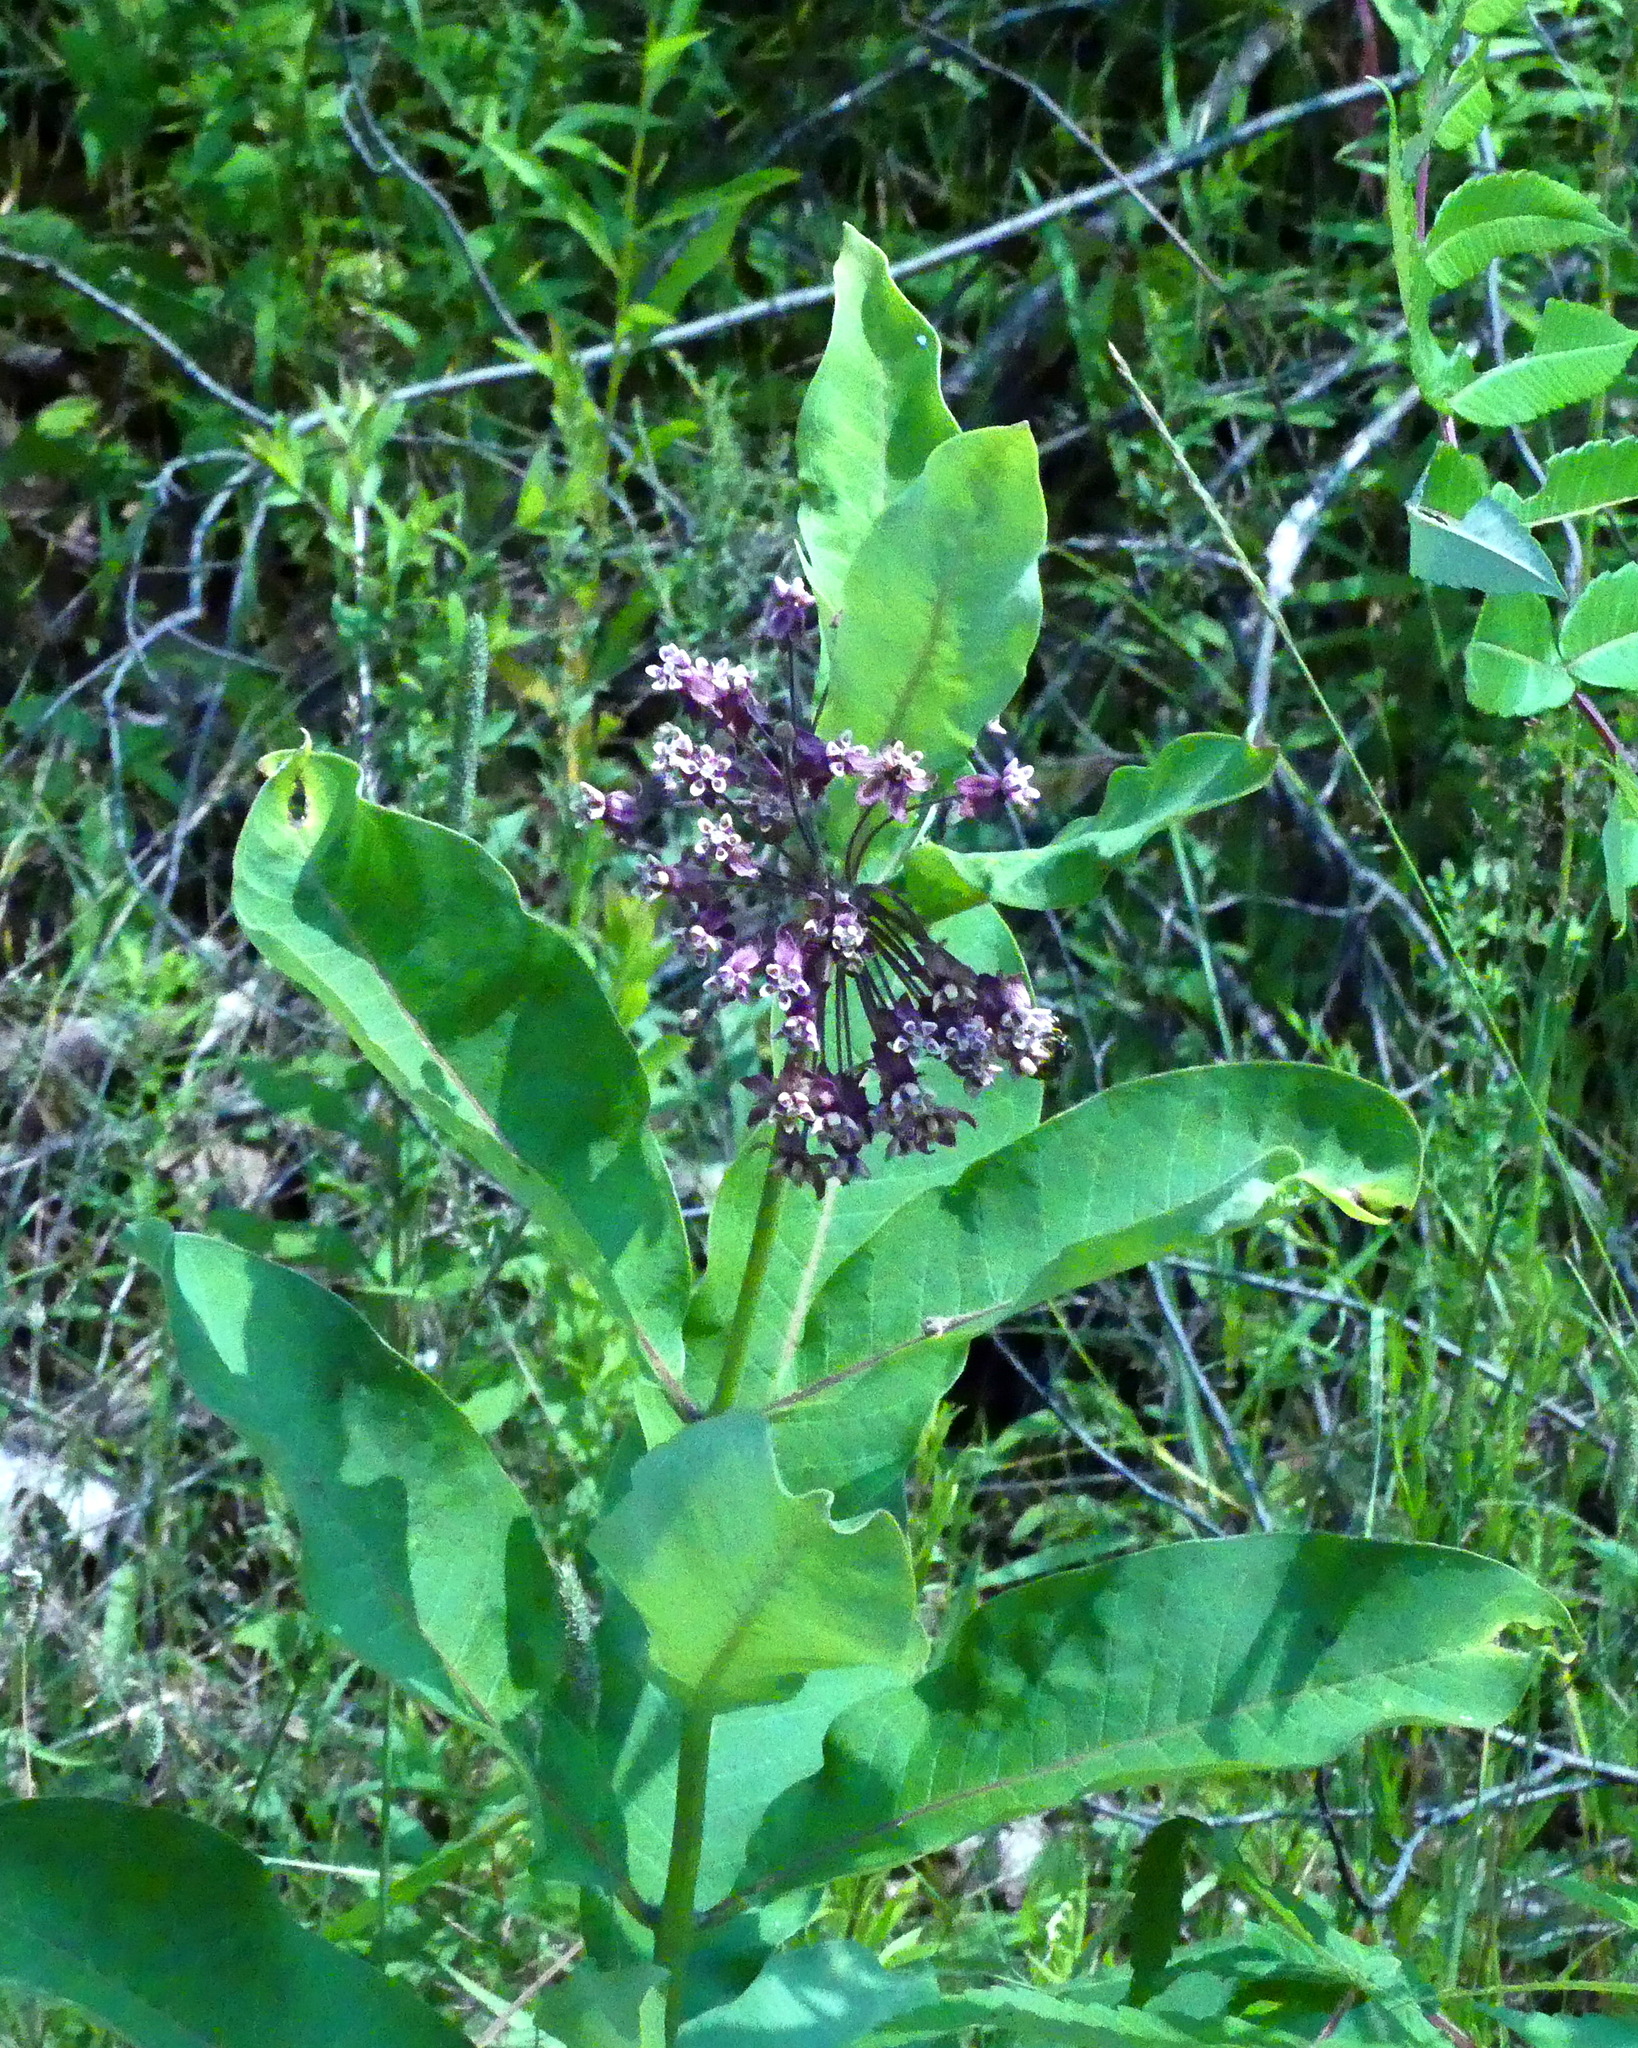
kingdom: Plantae
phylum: Tracheophyta
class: Magnoliopsida
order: Gentianales
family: Apocynaceae
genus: Asclepias
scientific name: Asclepias syriaca
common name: Common milkweed
